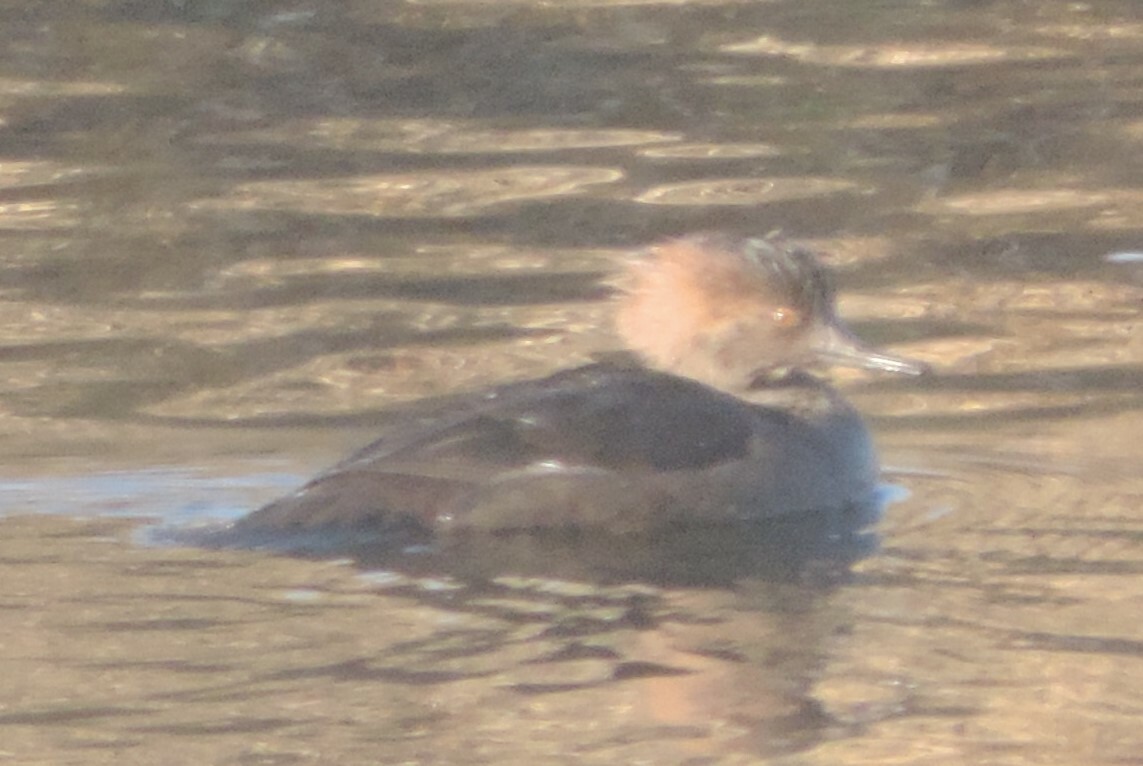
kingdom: Animalia
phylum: Chordata
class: Aves
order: Anseriformes
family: Anatidae
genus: Lophodytes
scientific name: Lophodytes cucullatus
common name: Hooded merganser
